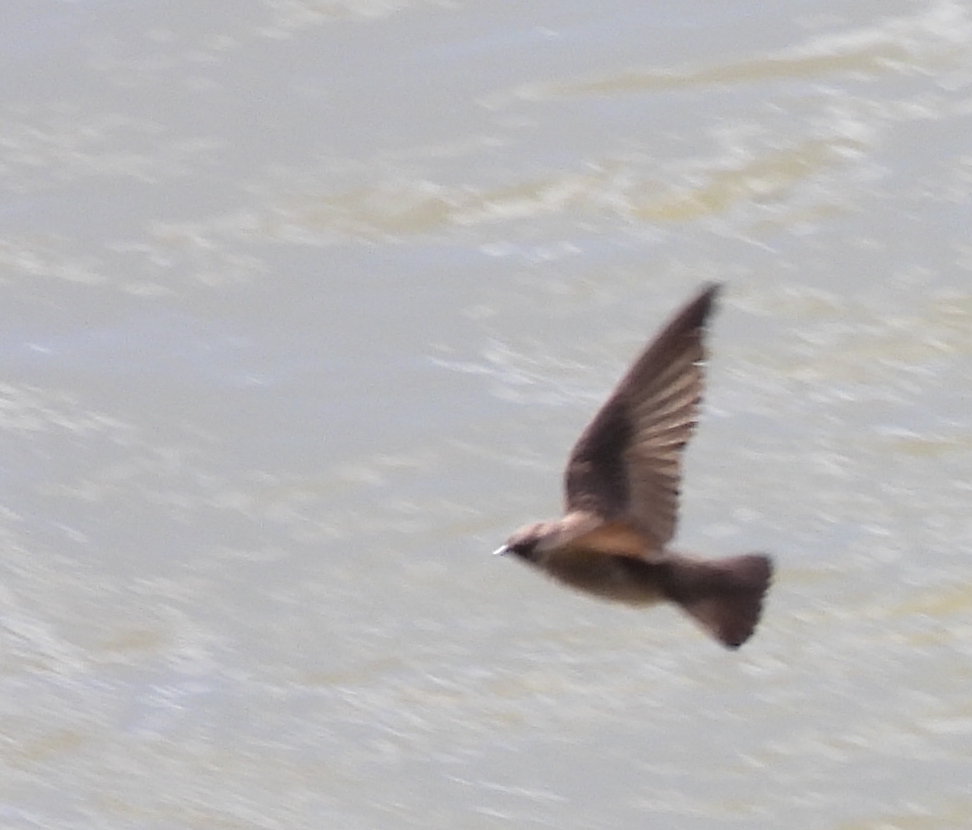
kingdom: Animalia
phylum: Chordata
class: Aves
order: Passeriformes
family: Hirundinidae
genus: Stelgidopteryx
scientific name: Stelgidopteryx serripennis
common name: Northern rough-winged swallow
